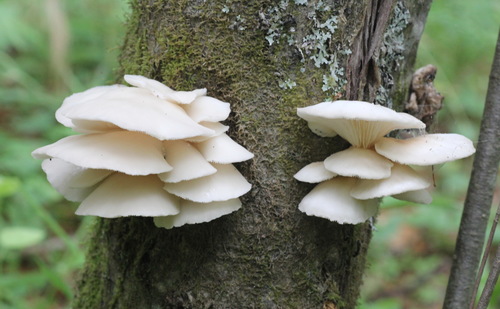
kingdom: Fungi
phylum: Basidiomycota
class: Agaricomycetes
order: Agaricales
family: Pleurotaceae
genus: Pleurotus
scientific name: Pleurotus pulmonarius
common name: Pale oyster
